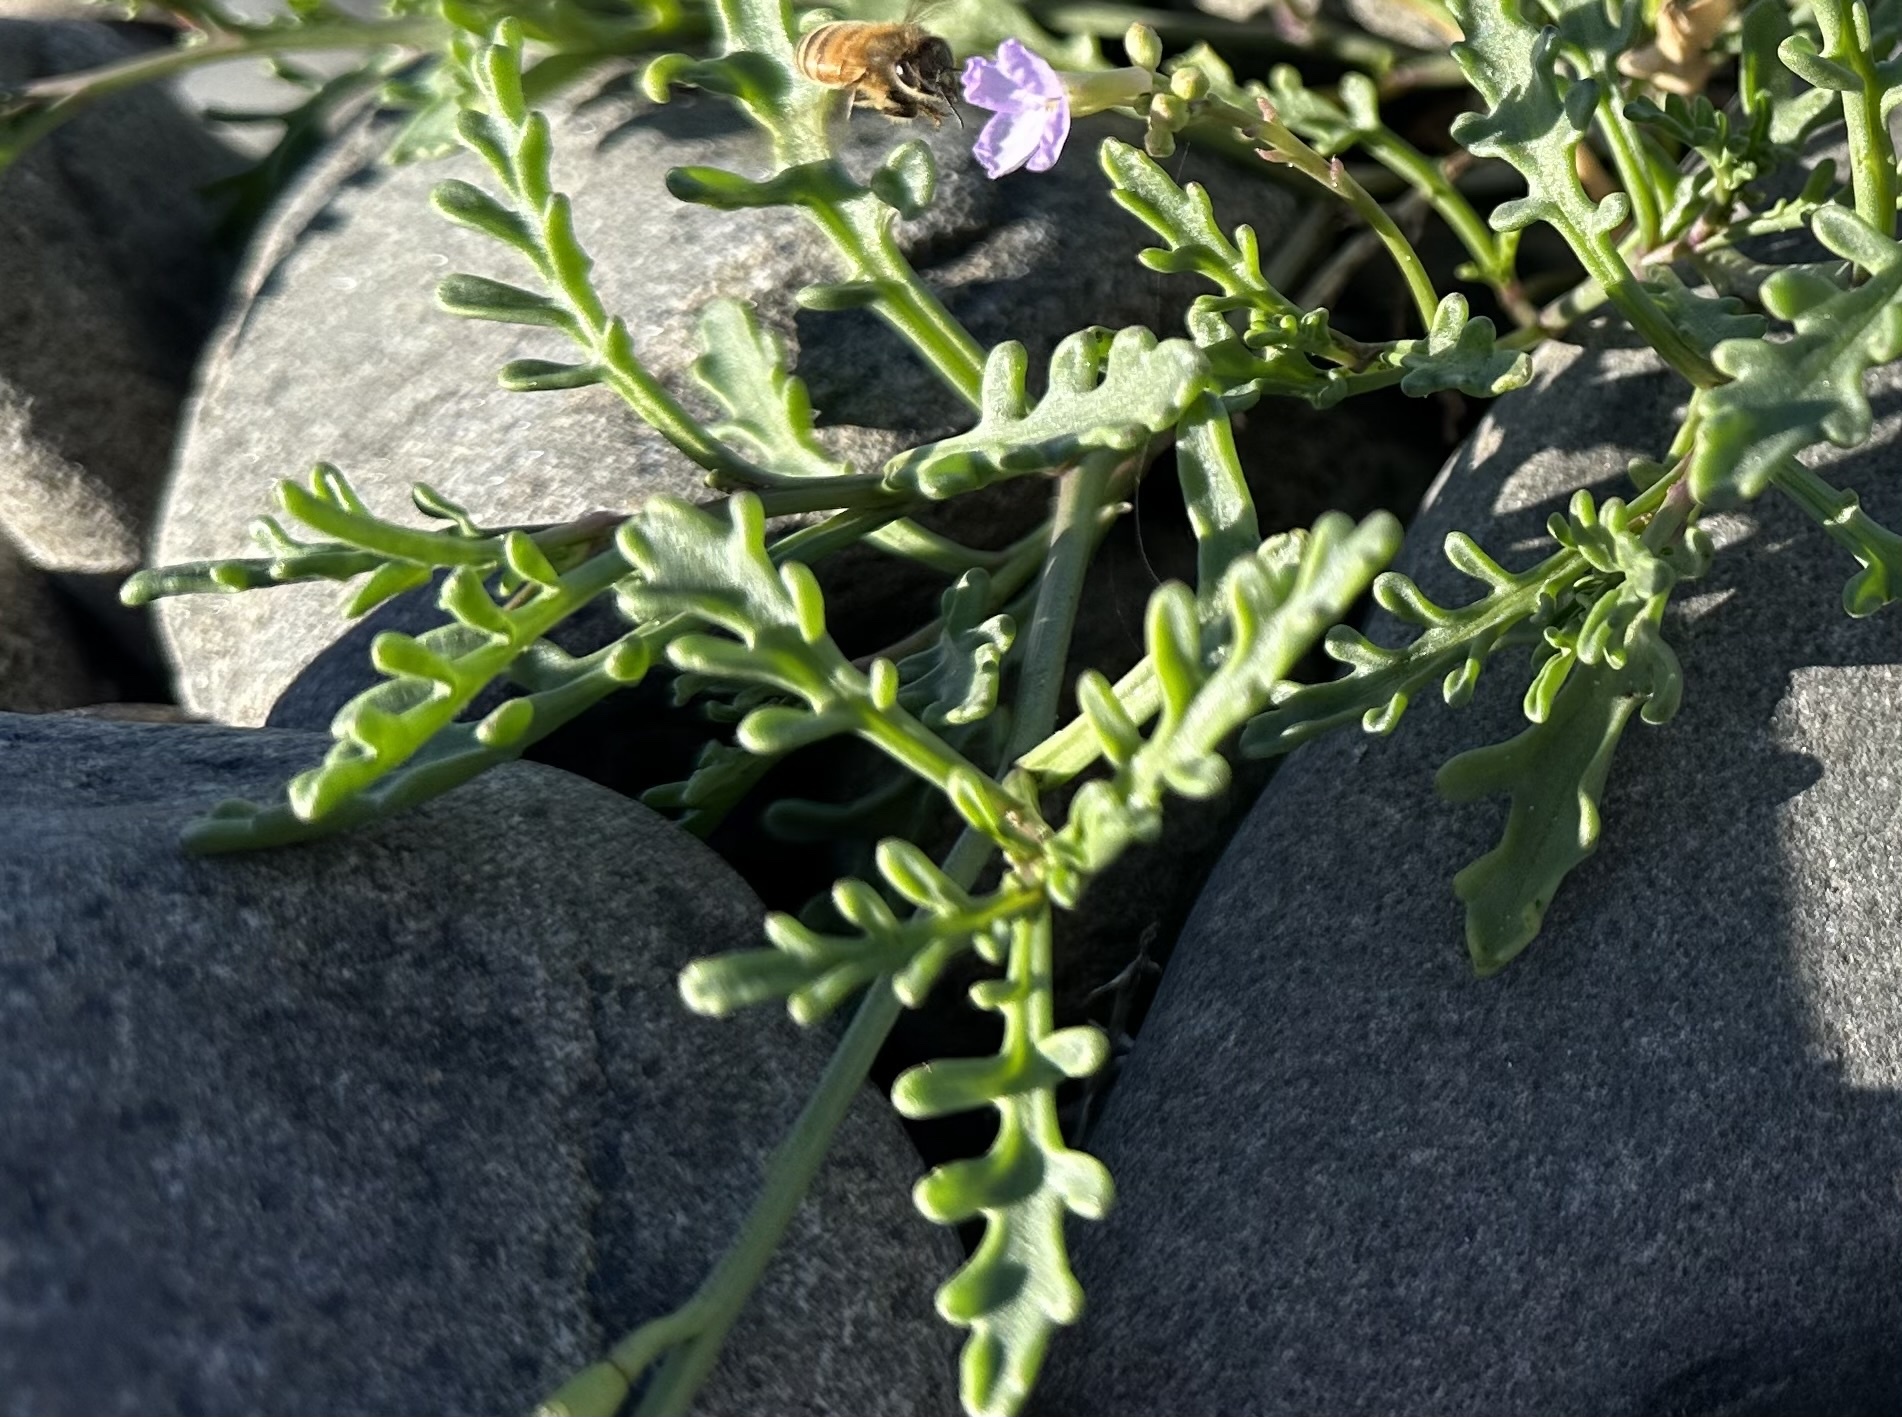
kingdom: Plantae
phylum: Tracheophyta
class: Magnoliopsida
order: Brassicales
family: Brassicaceae
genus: Cakile
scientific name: Cakile maritima
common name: Sea rocket
